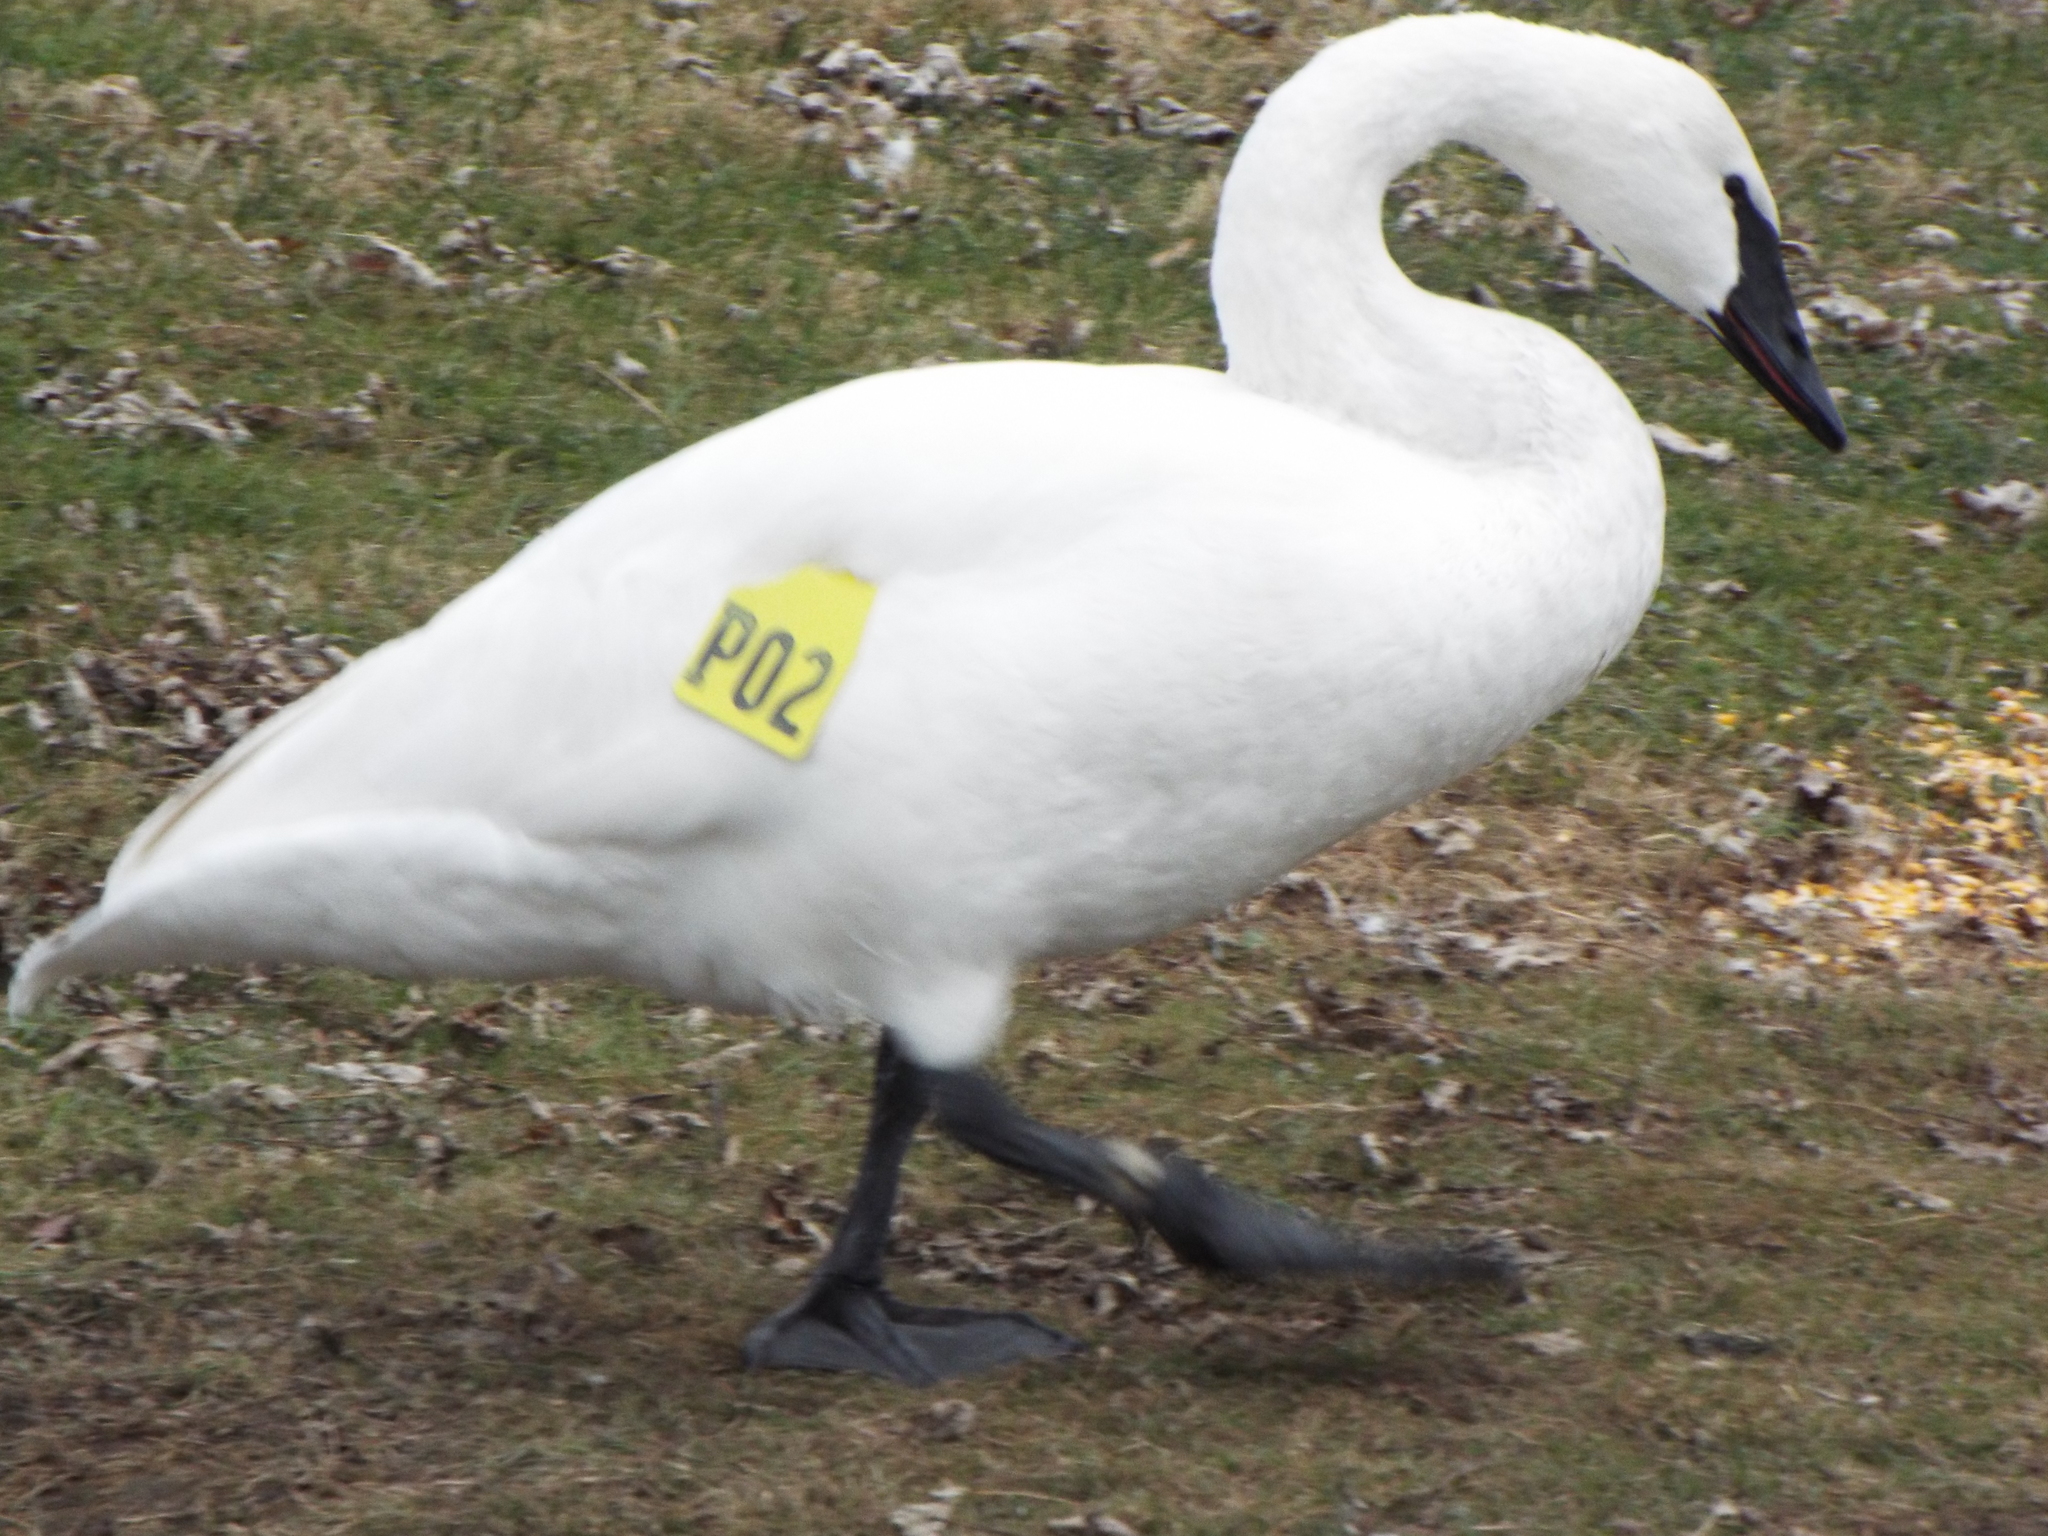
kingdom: Animalia
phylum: Chordata
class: Aves
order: Anseriformes
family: Anatidae
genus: Cygnus
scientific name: Cygnus buccinator
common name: Trumpeter swan
